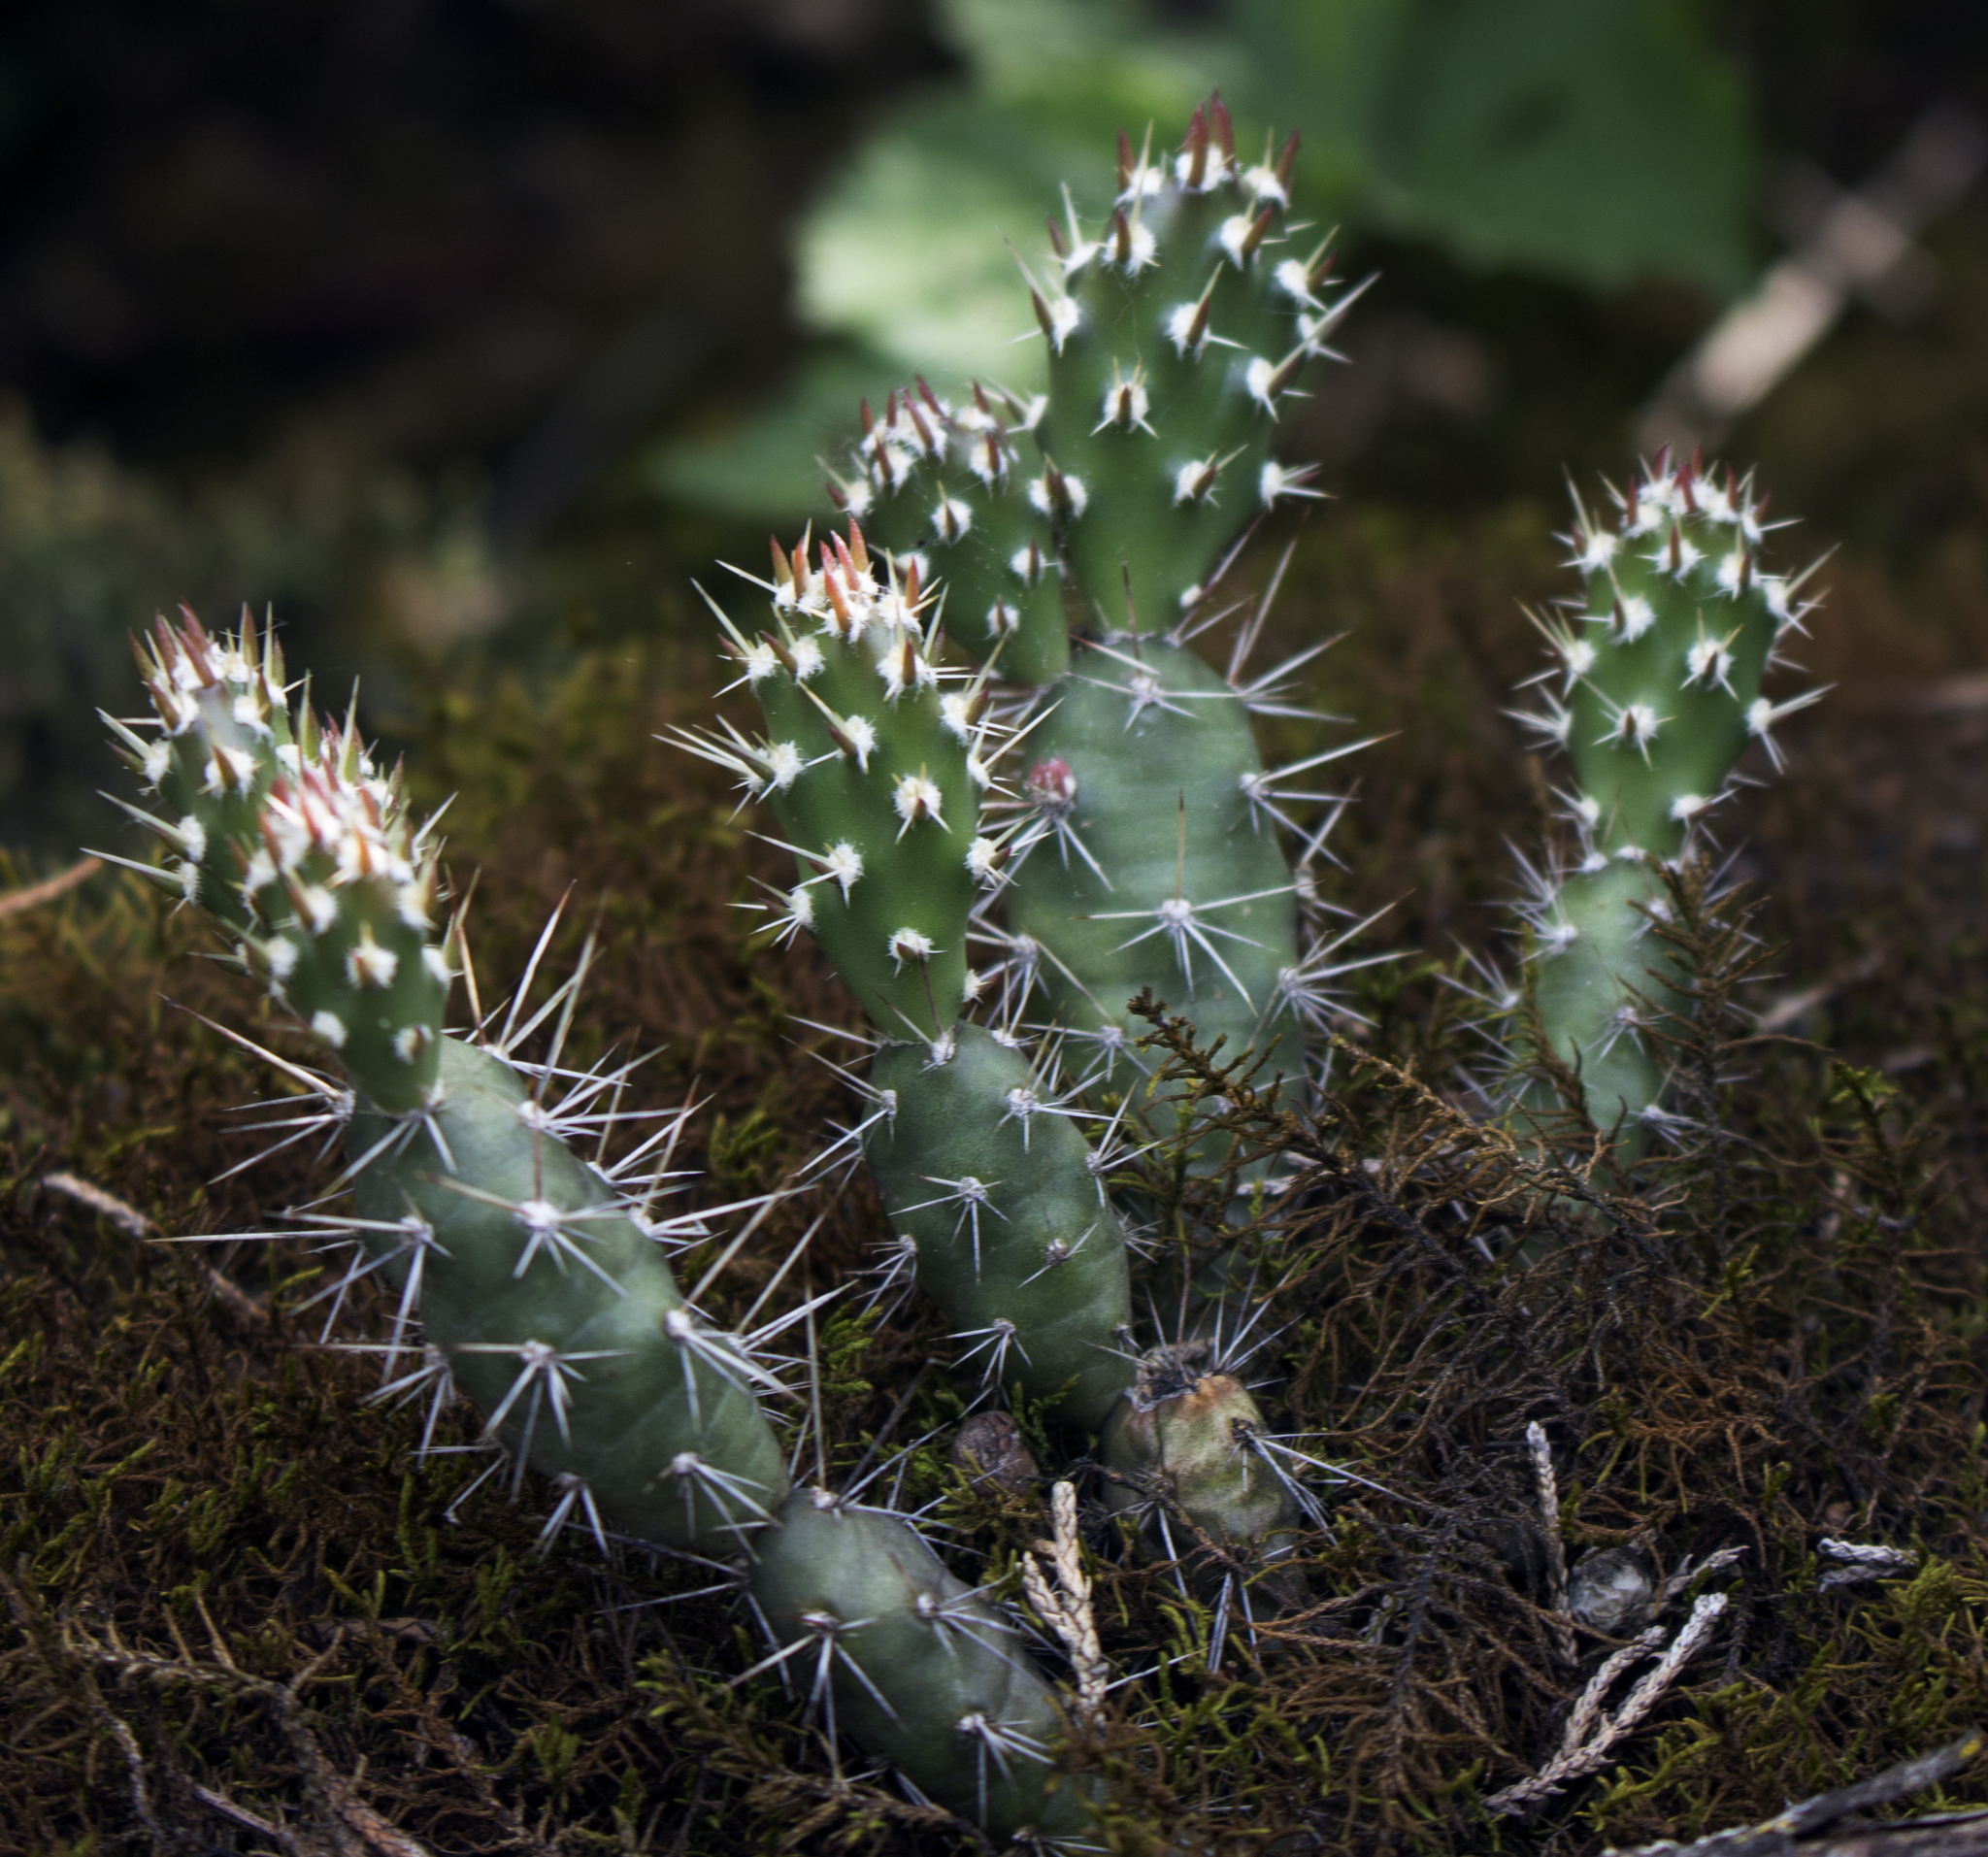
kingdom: Plantae
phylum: Tracheophyta
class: Magnoliopsida
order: Caryophyllales
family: Cactaceae
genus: Opuntia
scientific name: Opuntia fragilis
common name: Brittle cactus
